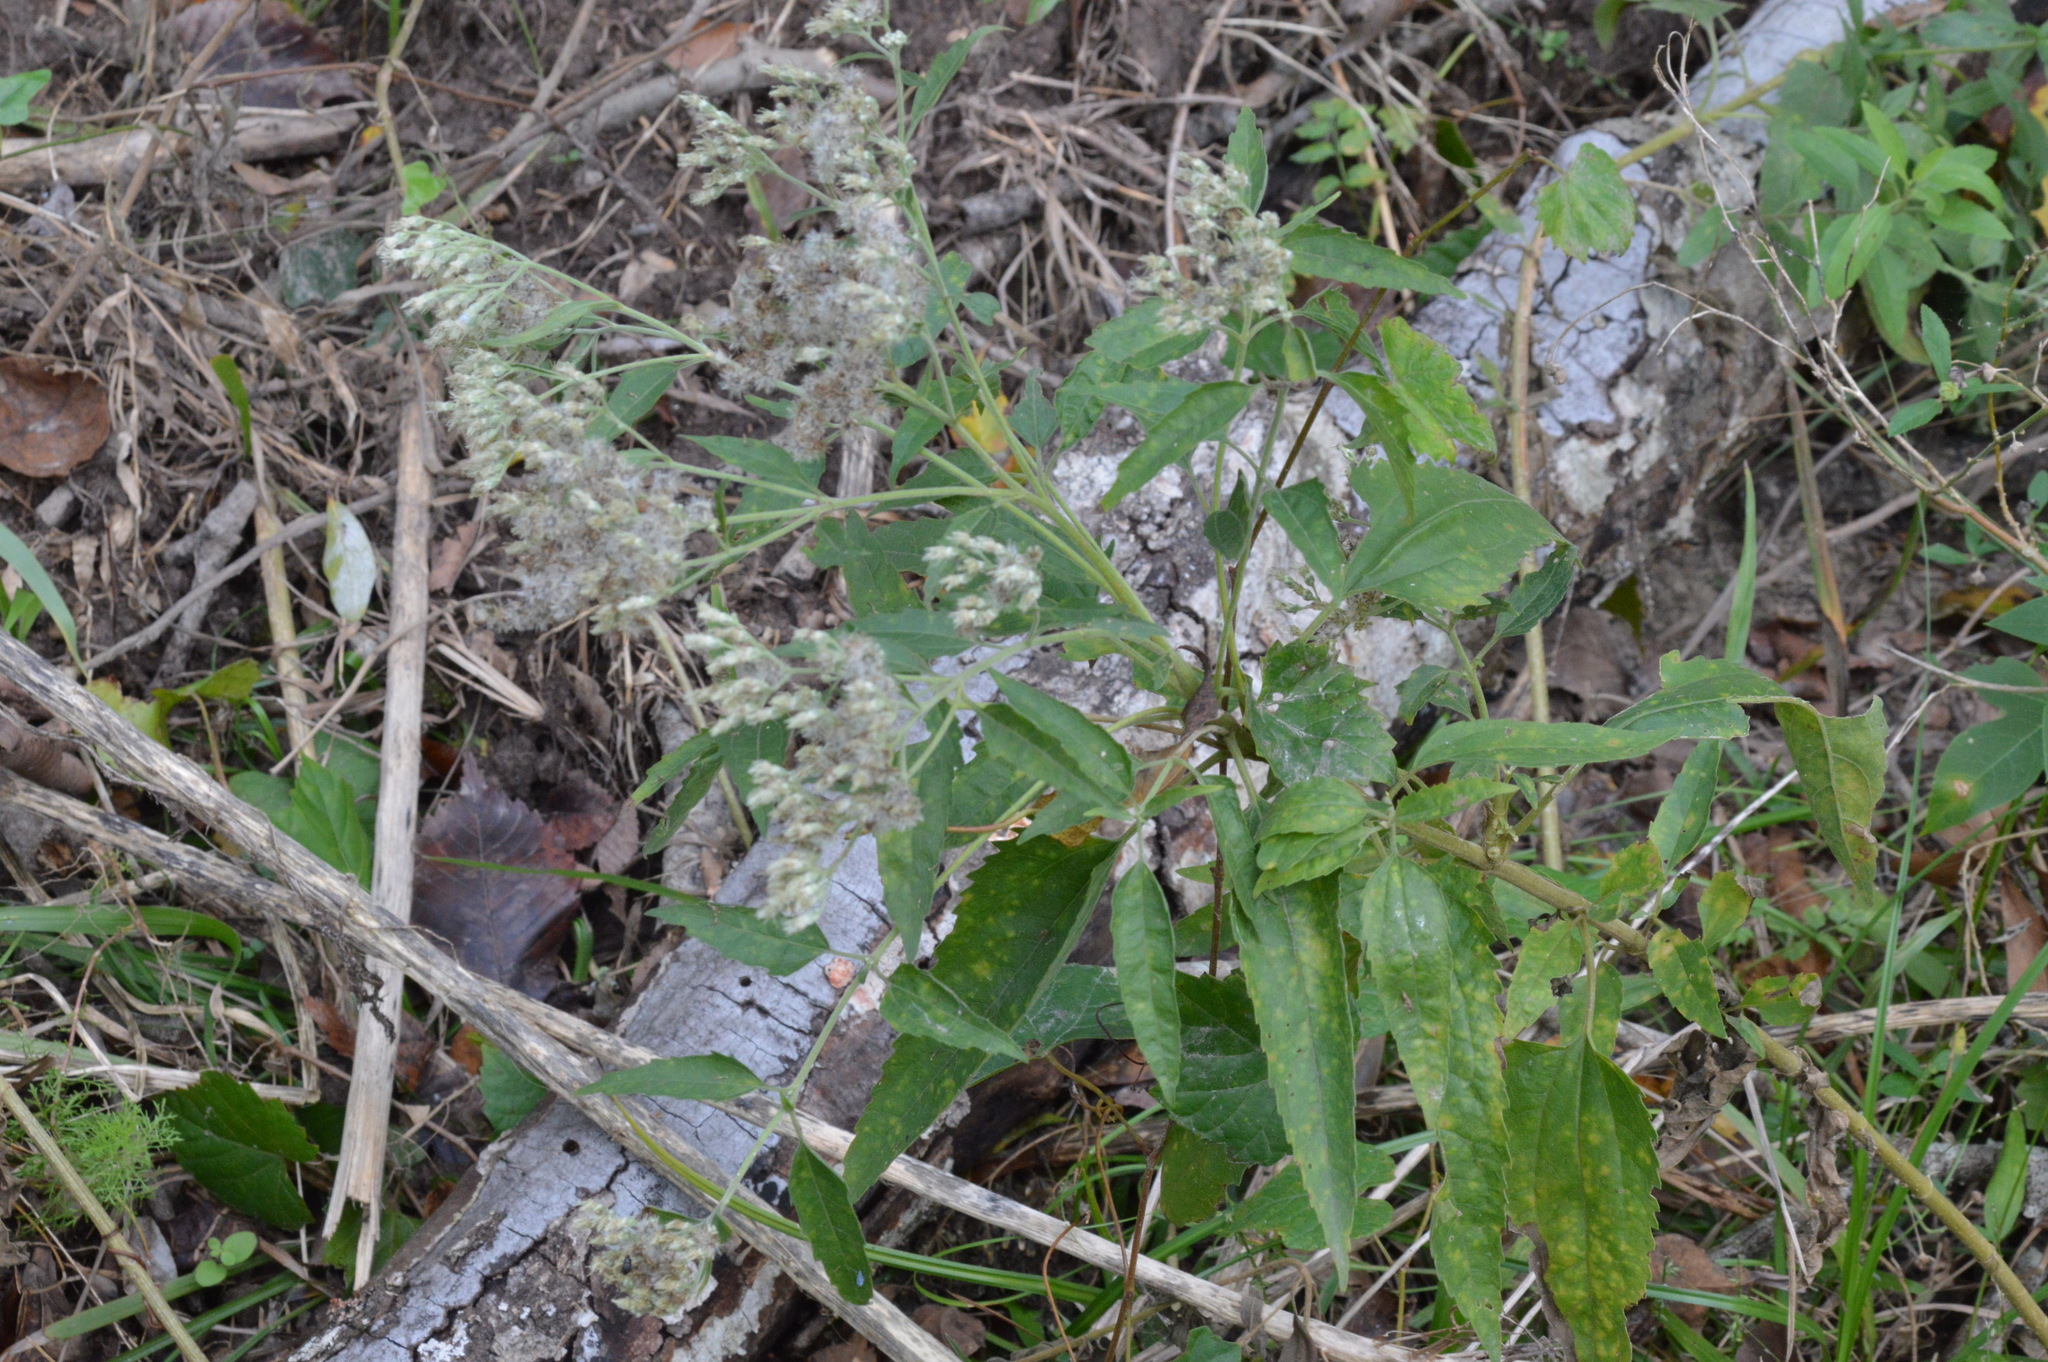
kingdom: Plantae
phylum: Tracheophyta
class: Magnoliopsida
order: Asterales
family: Asteraceae
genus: Eupatorium
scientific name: Eupatorium serotinum
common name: Late boneset
